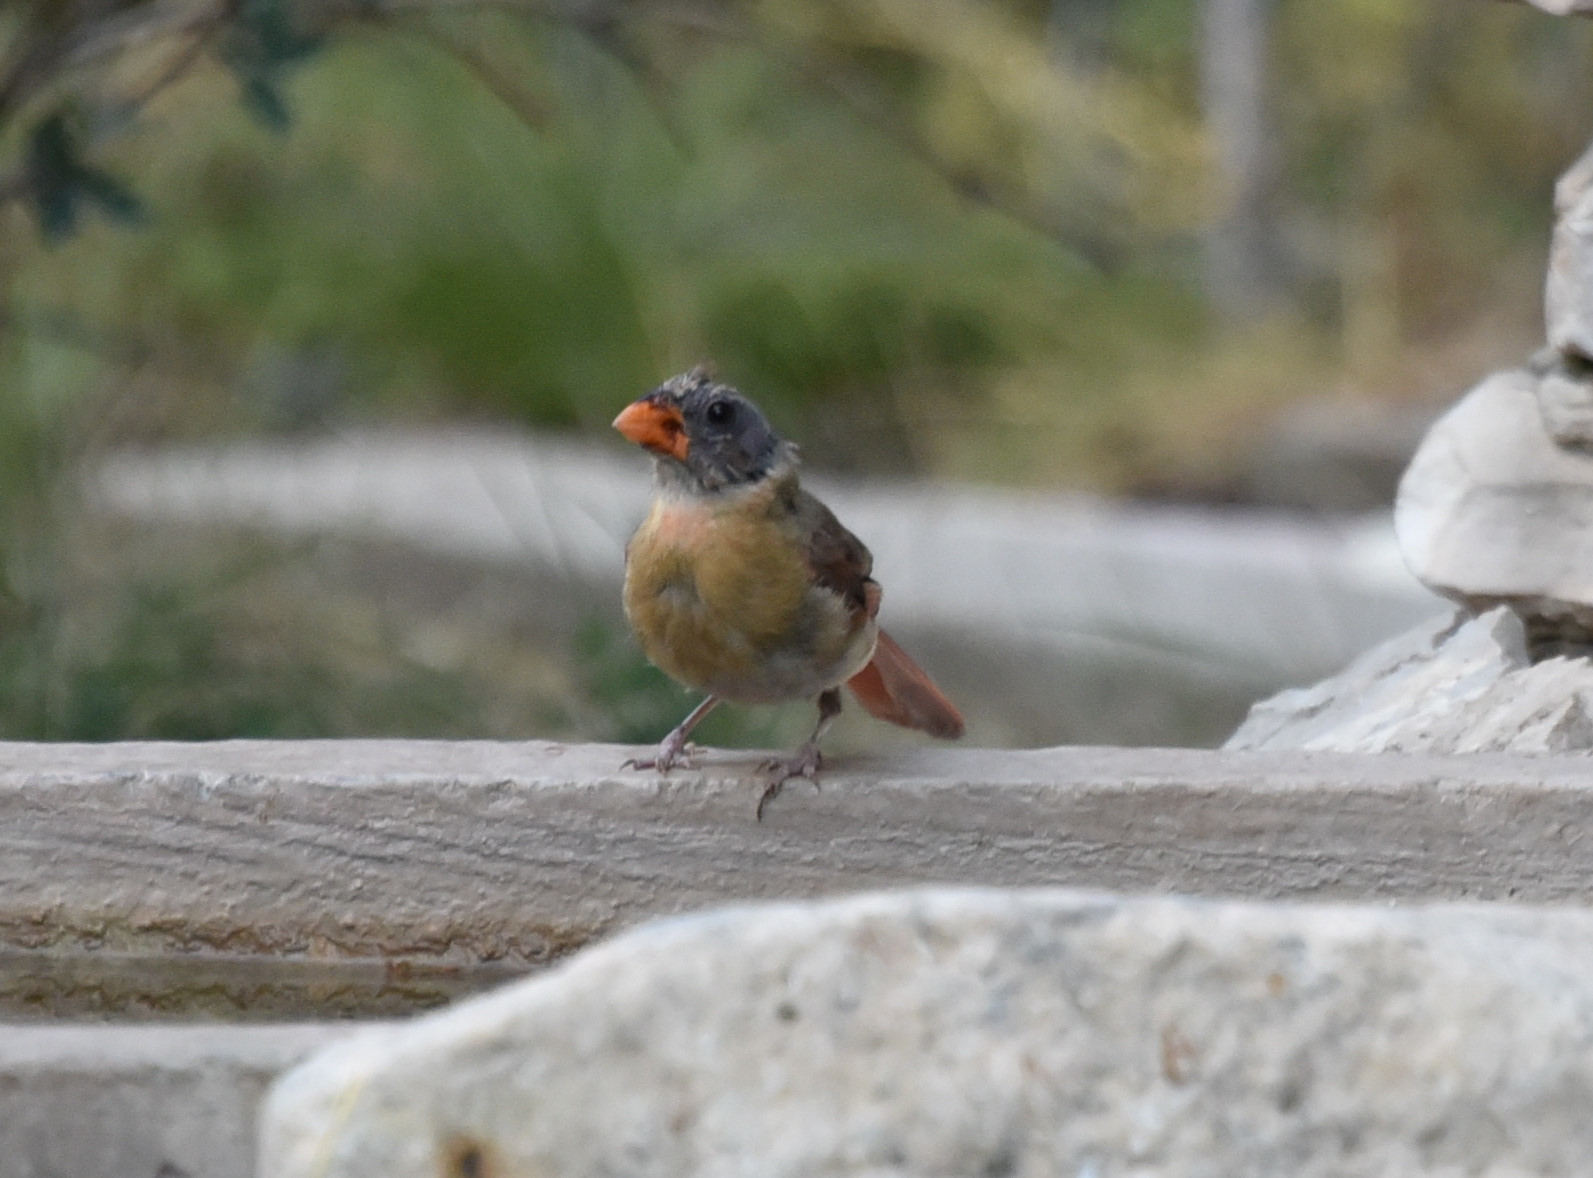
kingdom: Animalia
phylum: Chordata
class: Aves
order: Passeriformes
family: Cardinalidae
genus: Cardinalis
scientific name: Cardinalis cardinalis
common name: Northern cardinal
